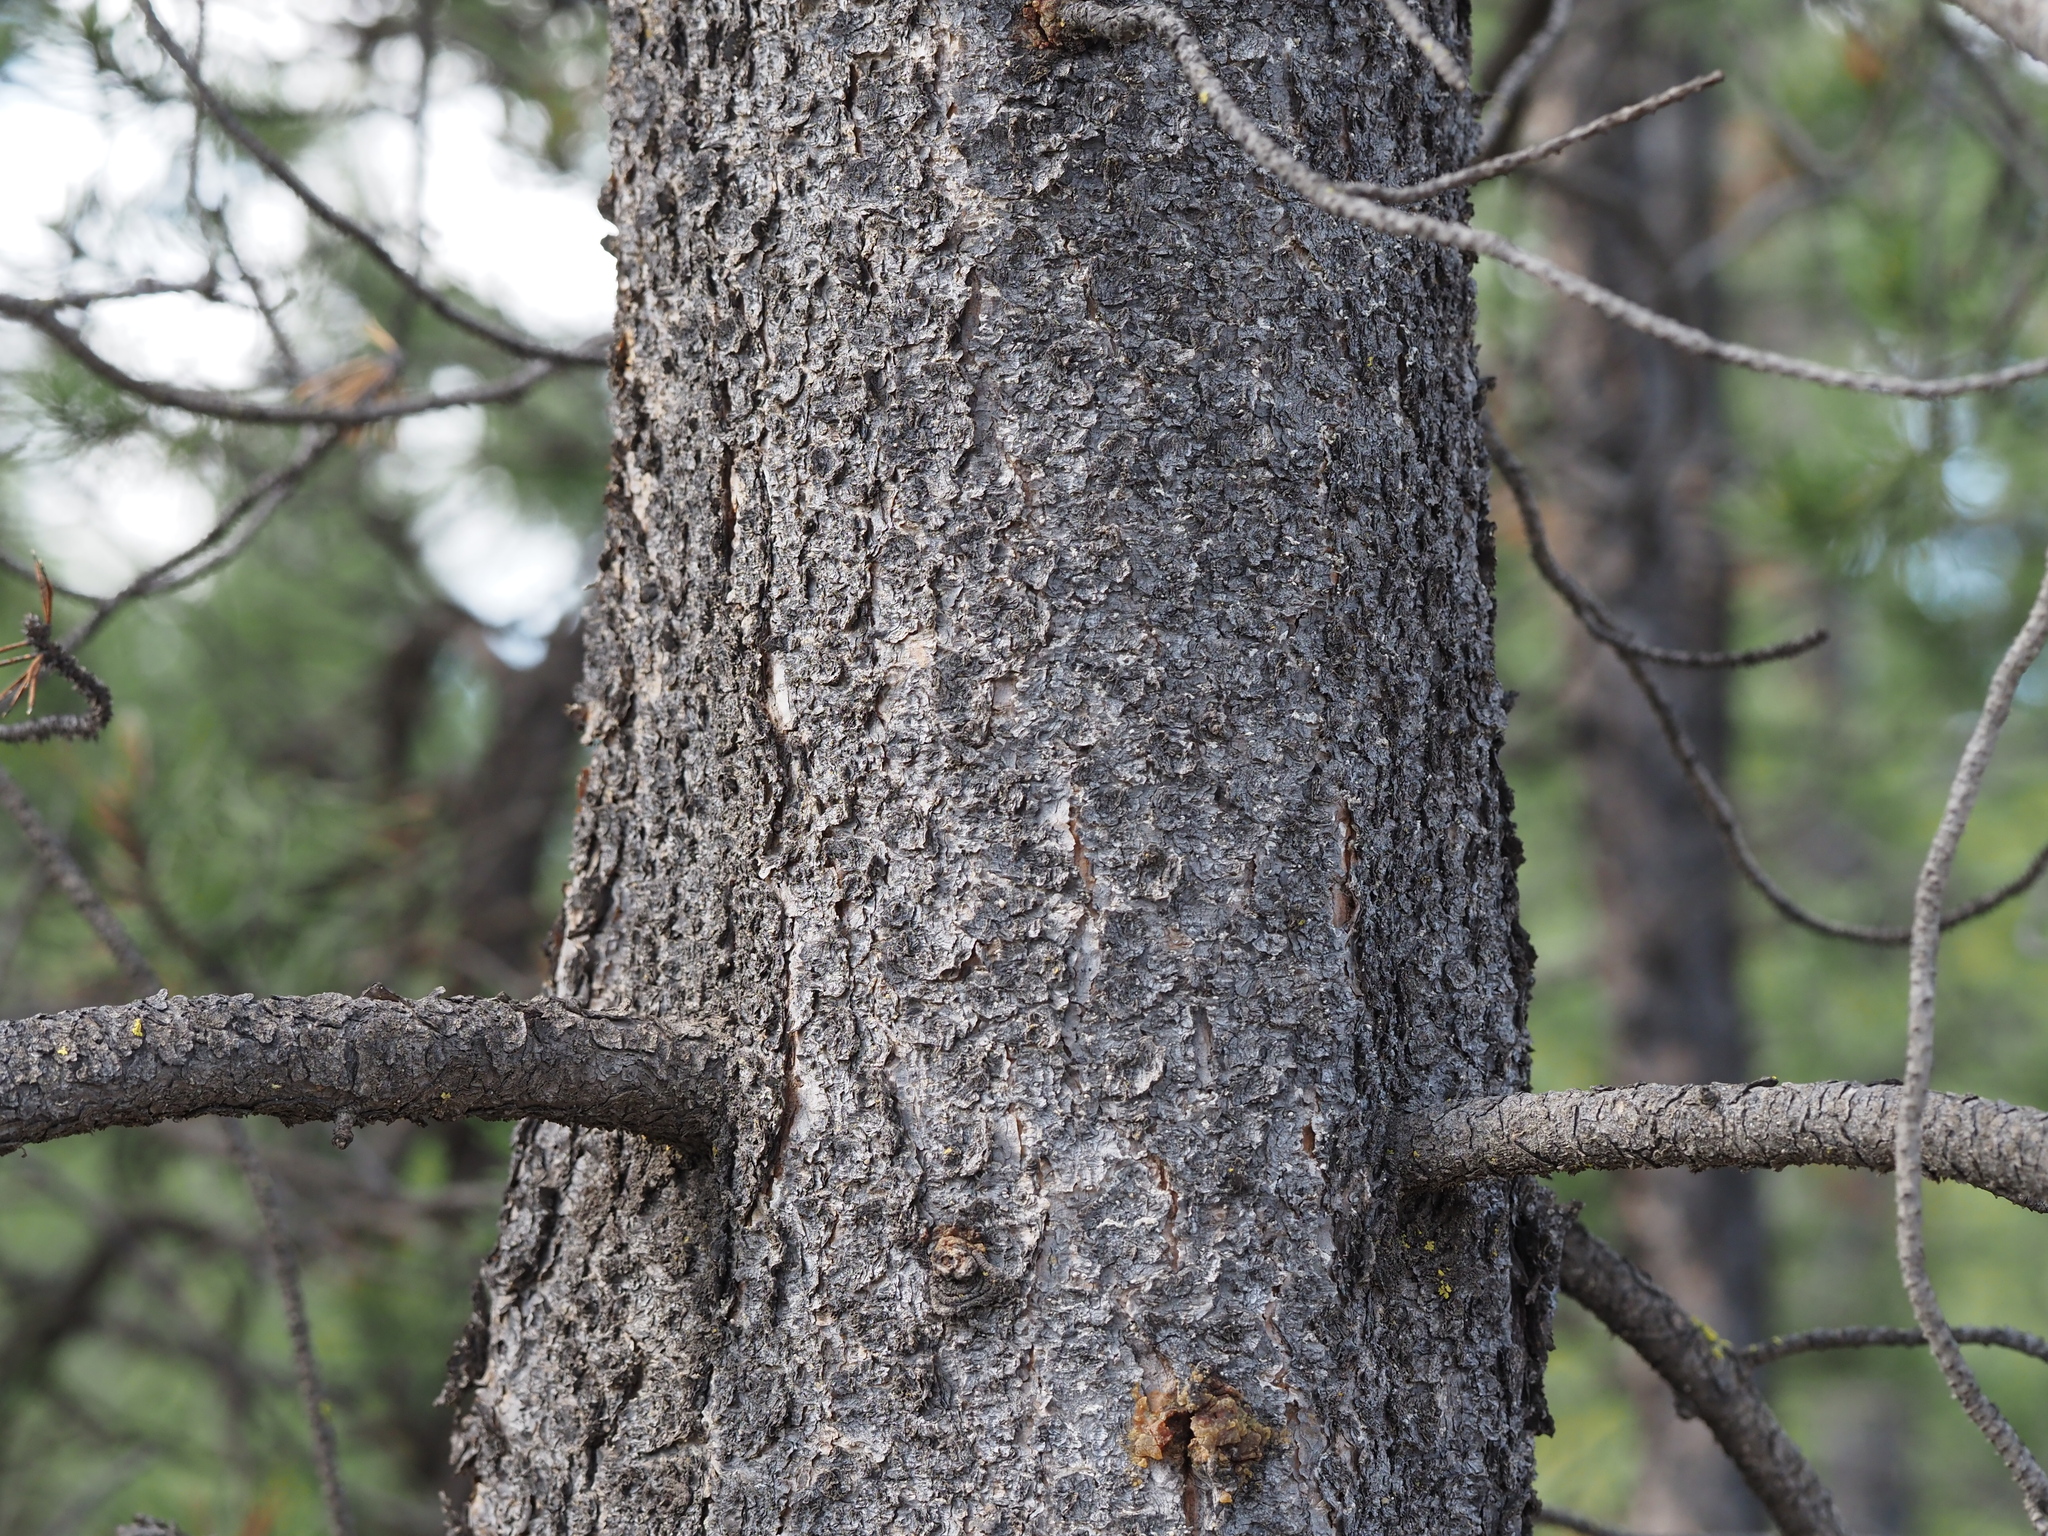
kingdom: Plantae
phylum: Tracheophyta
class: Pinopsida
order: Pinales
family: Pinaceae
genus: Pinus
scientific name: Pinus contorta
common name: Lodgepole pine
